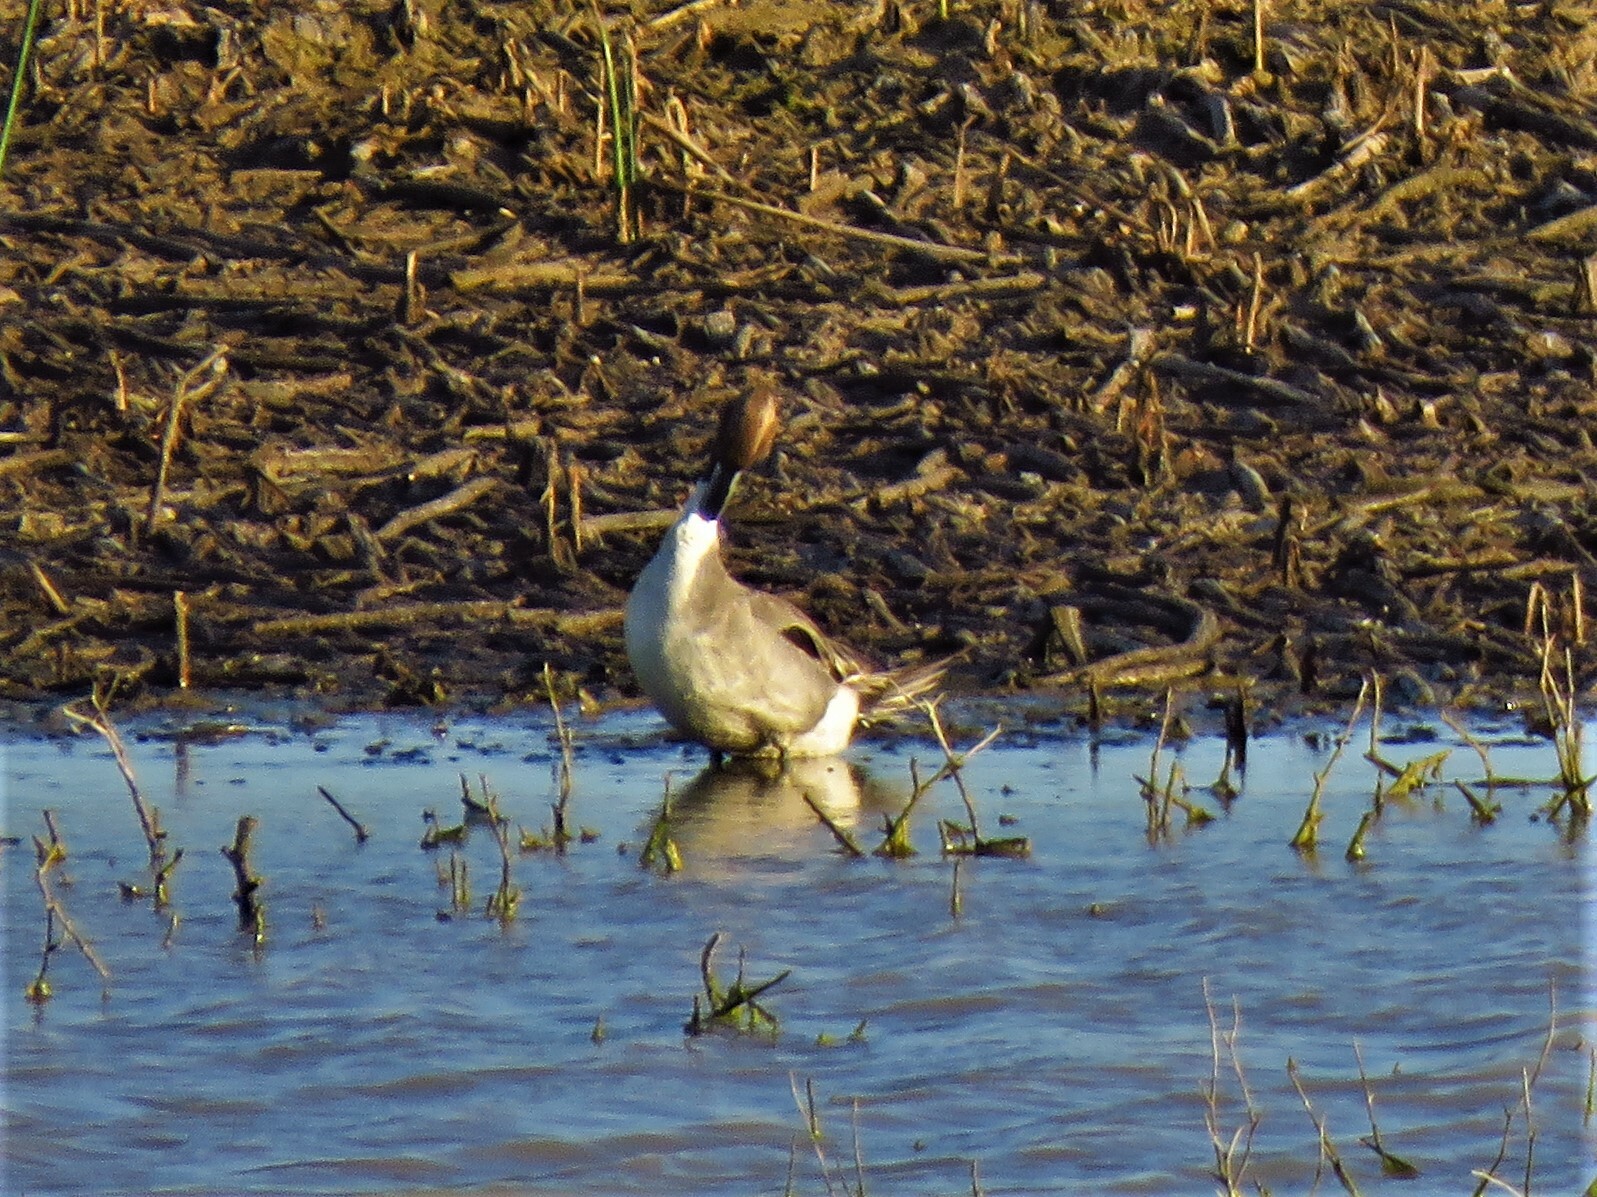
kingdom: Animalia
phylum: Chordata
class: Aves
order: Anseriformes
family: Anatidae
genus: Anas
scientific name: Anas acuta
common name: Northern pintail
